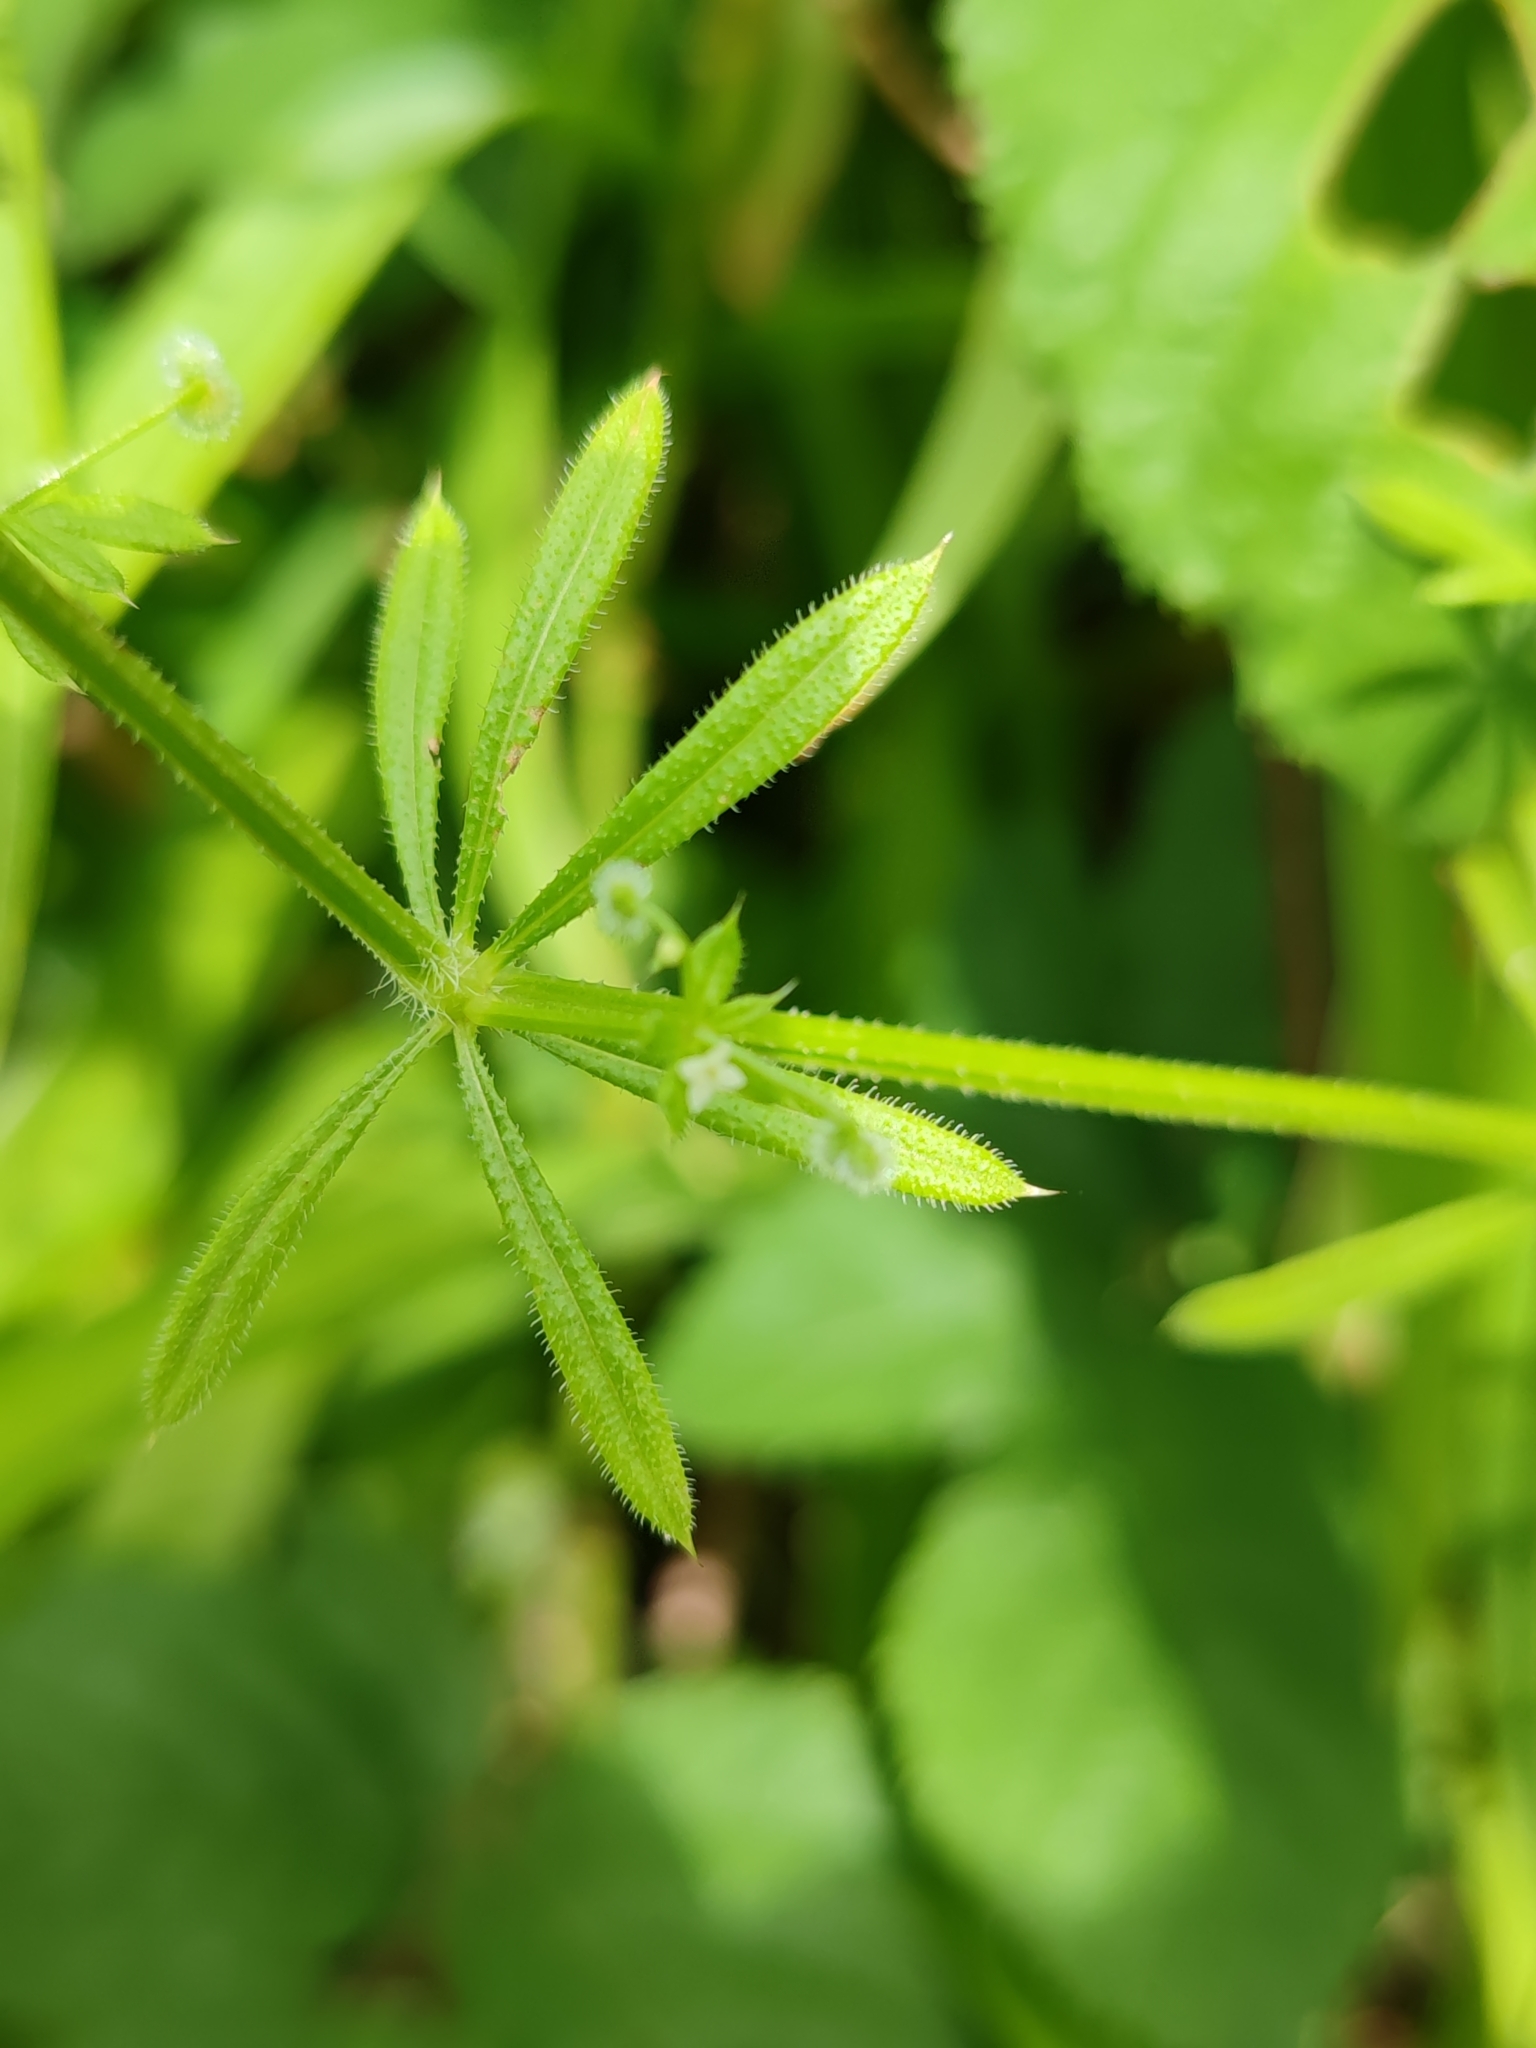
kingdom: Plantae
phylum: Tracheophyta
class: Magnoliopsida
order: Gentianales
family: Rubiaceae
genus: Galium
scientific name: Galium aparine
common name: Cleavers
